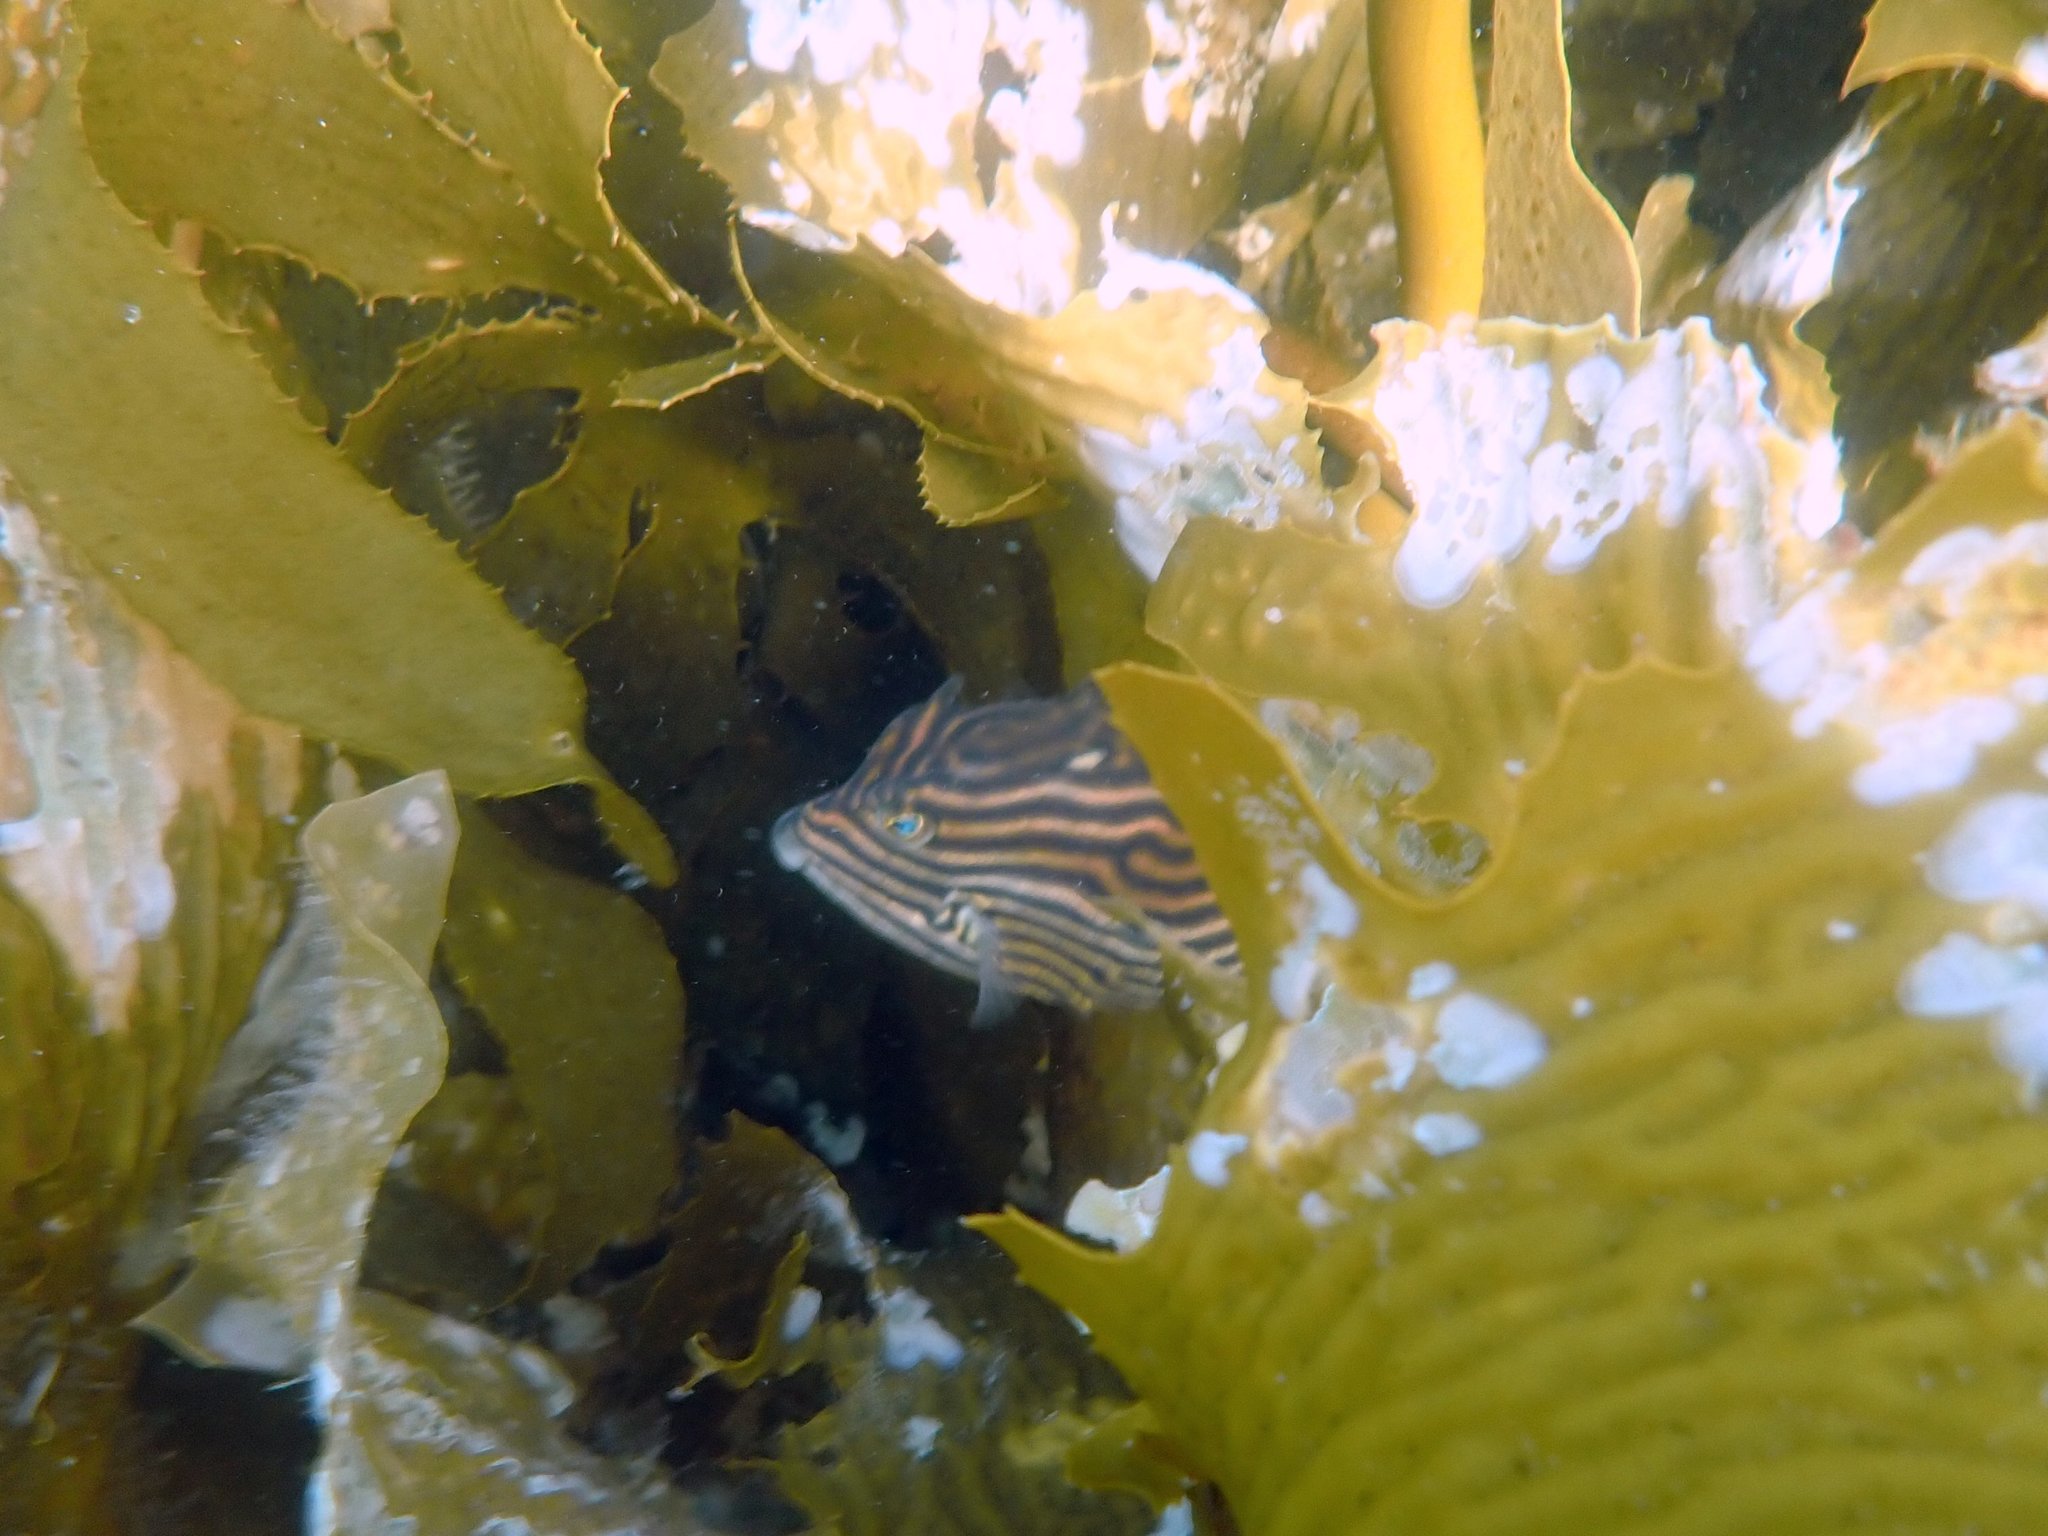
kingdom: Animalia
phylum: Chordata
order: Tetraodontiformes
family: Aracanidae
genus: Aracana
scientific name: Aracana aurita
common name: Shaw’s cowfish
